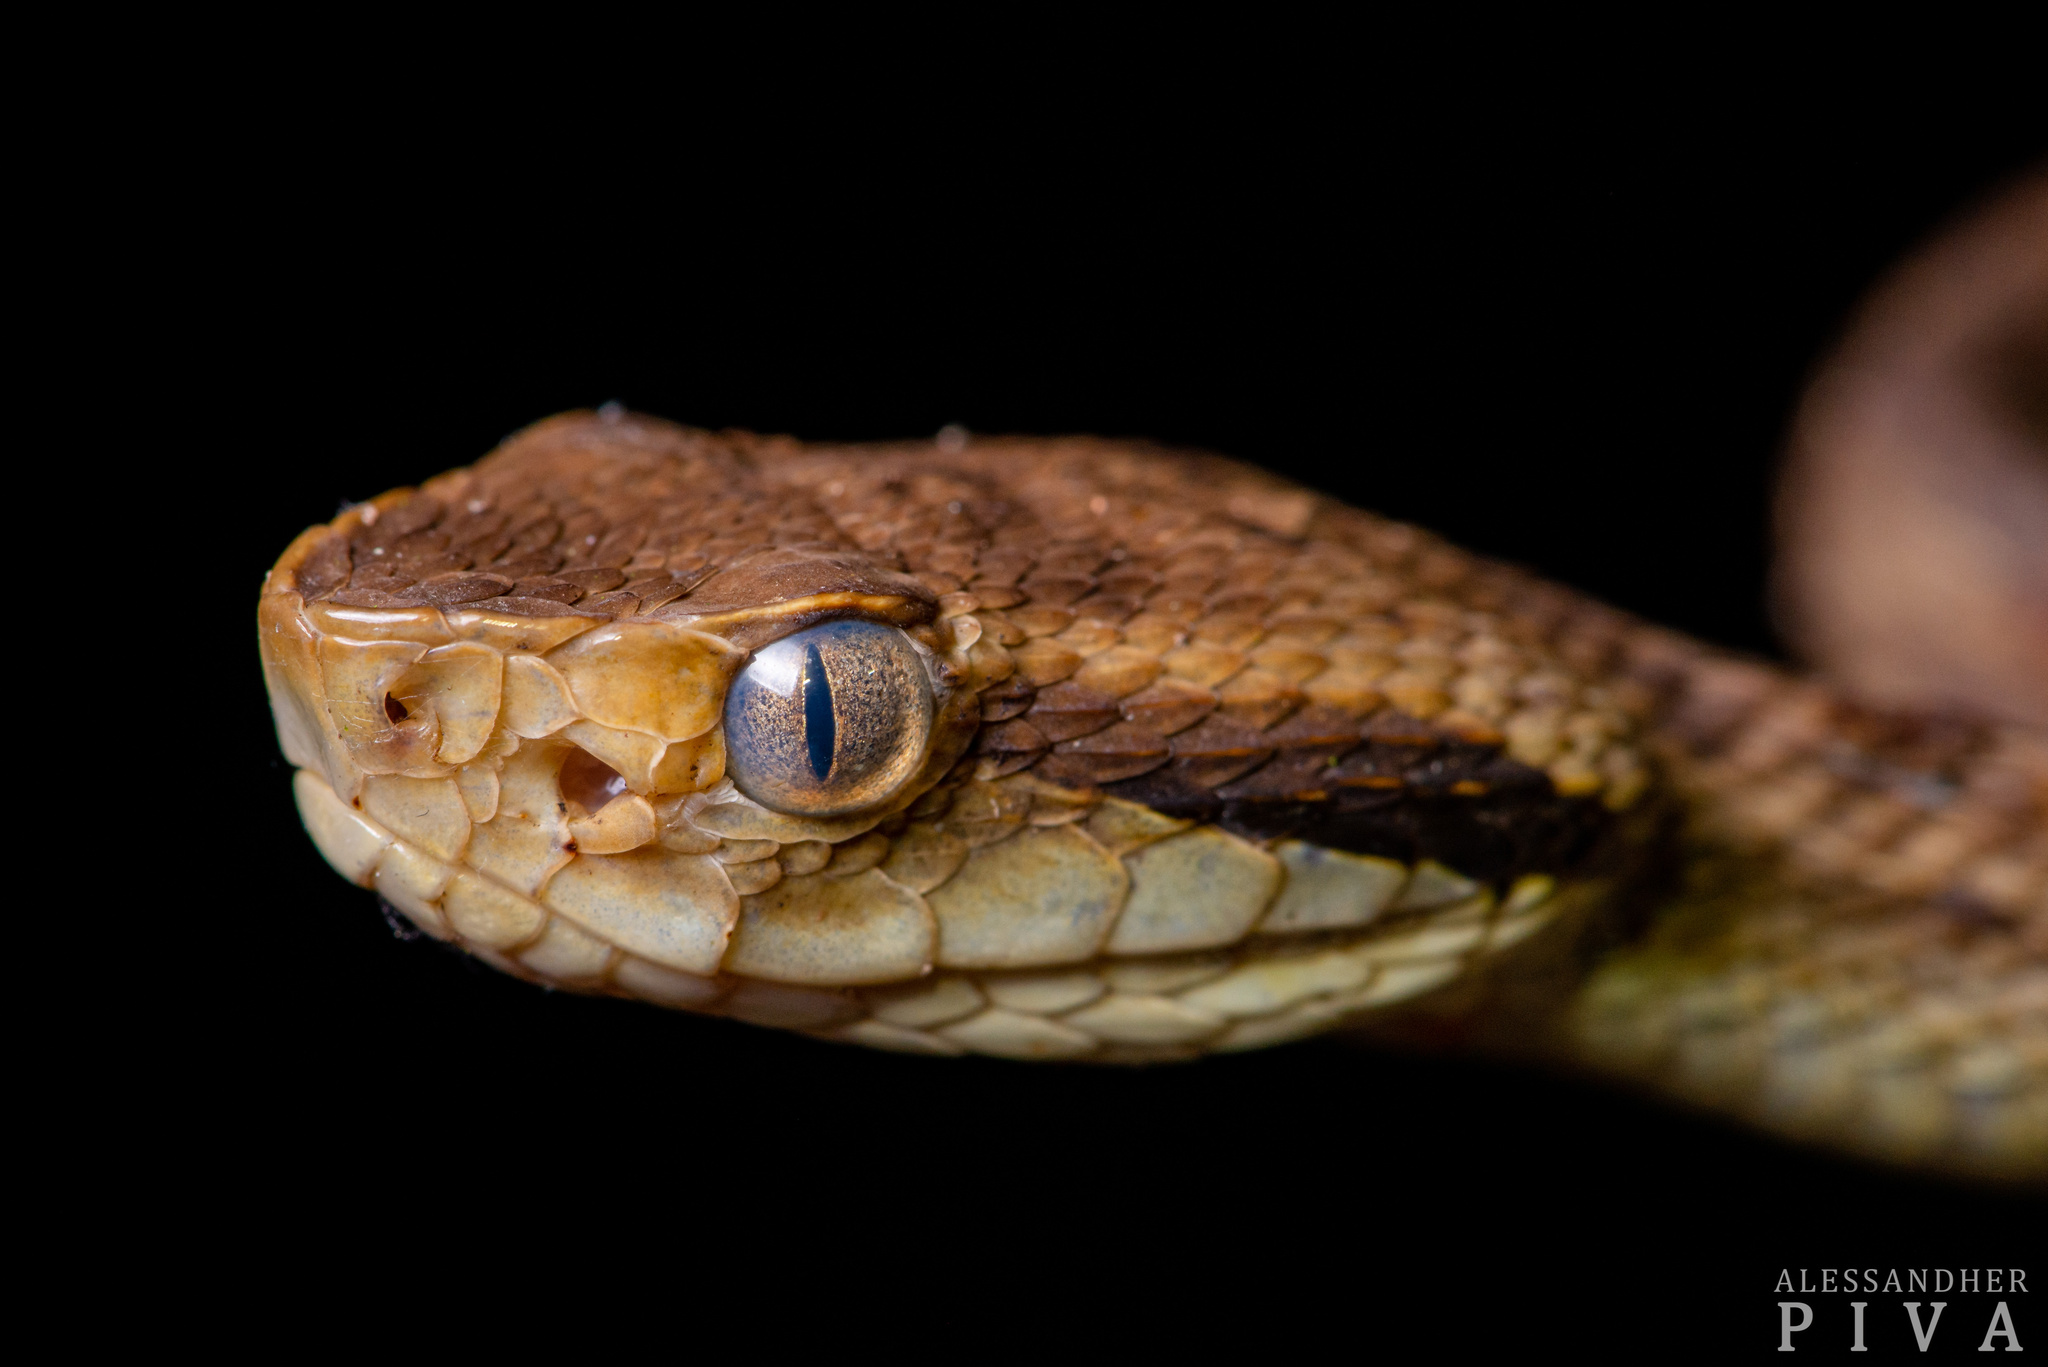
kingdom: Animalia
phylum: Chordata
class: Squamata
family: Viperidae
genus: Bothrops
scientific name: Bothrops jararaca
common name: Jararaca
